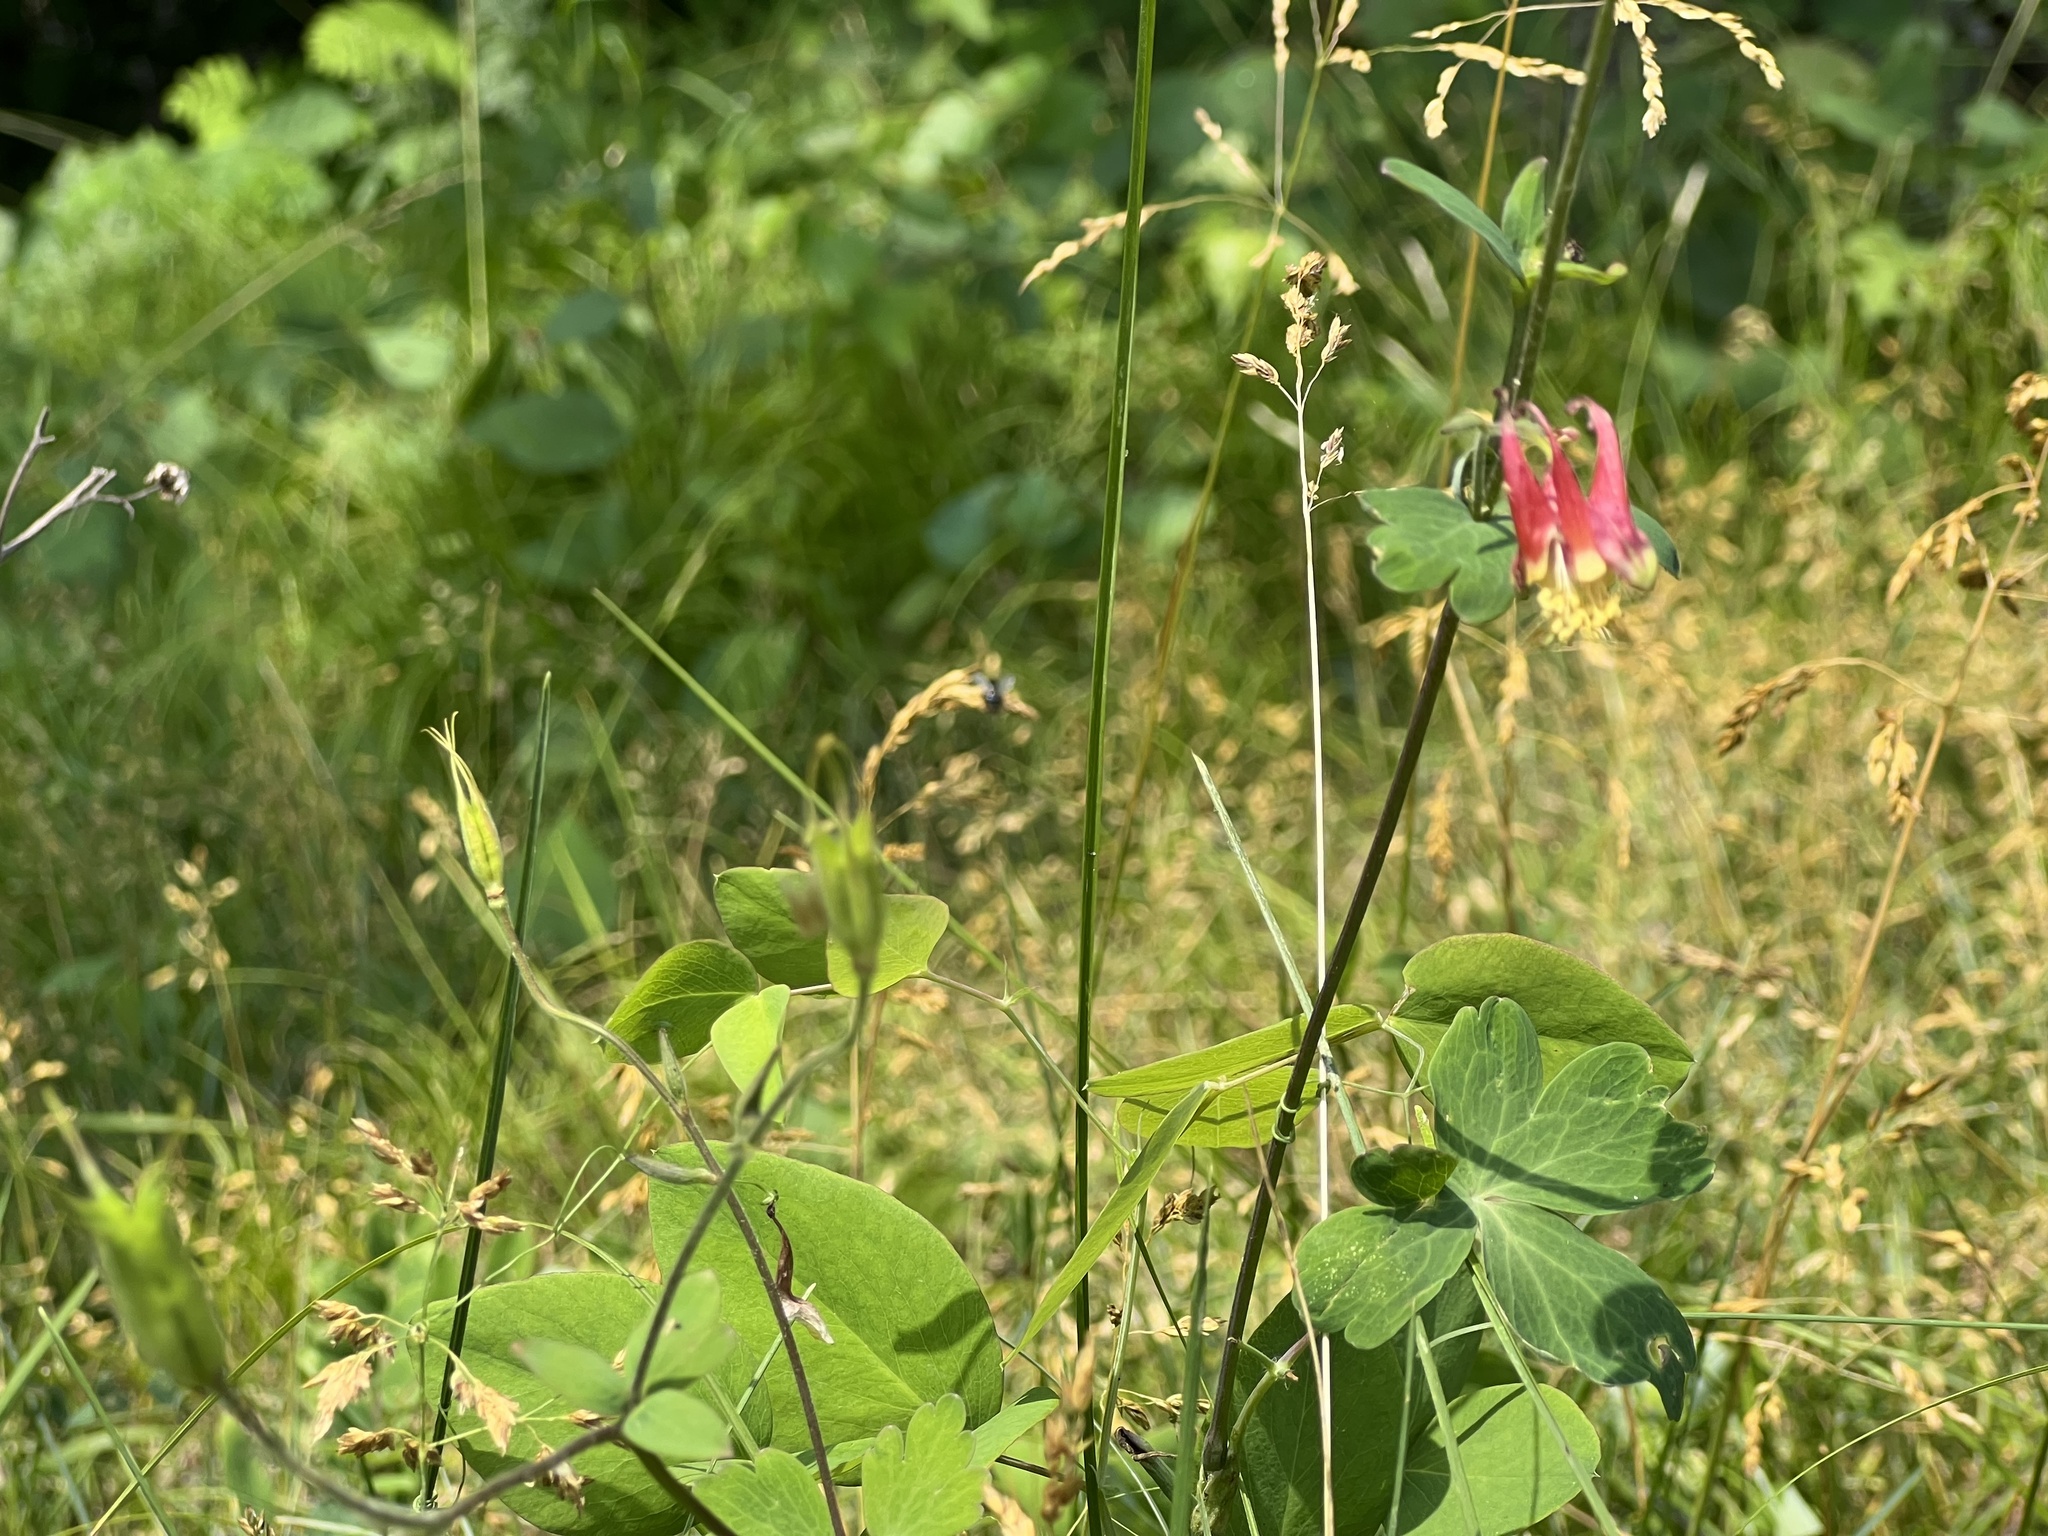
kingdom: Plantae
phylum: Tracheophyta
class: Magnoliopsida
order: Ranunculales
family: Ranunculaceae
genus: Aquilegia
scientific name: Aquilegia canadensis
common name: American columbine
